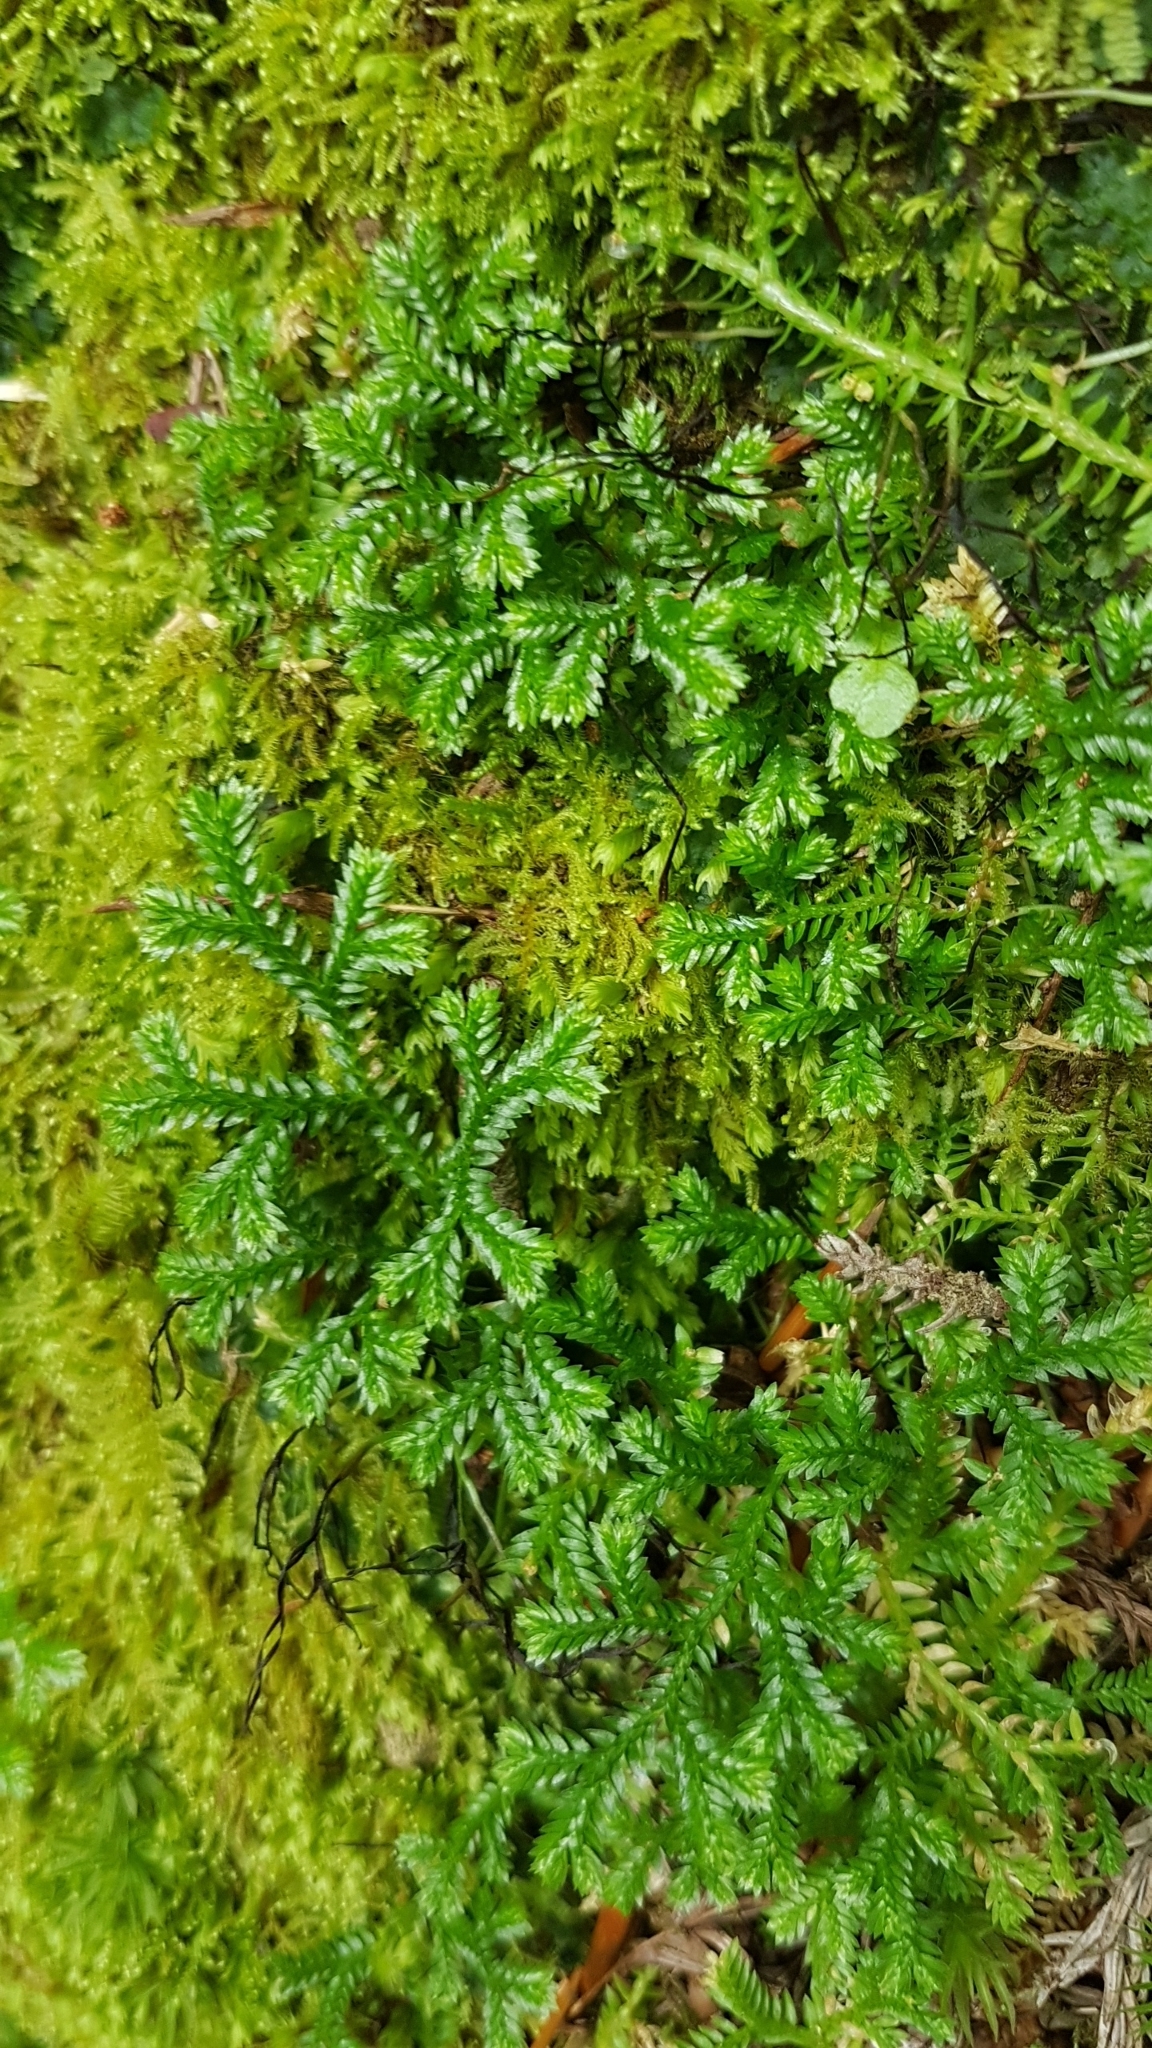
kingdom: Plantae
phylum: Tracheophyta
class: Lycopodiopsida
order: Selaginellales
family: Selaginellaceae
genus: Selaginella
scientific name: Selaginella kraussiana
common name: Krauss' spikemoss
